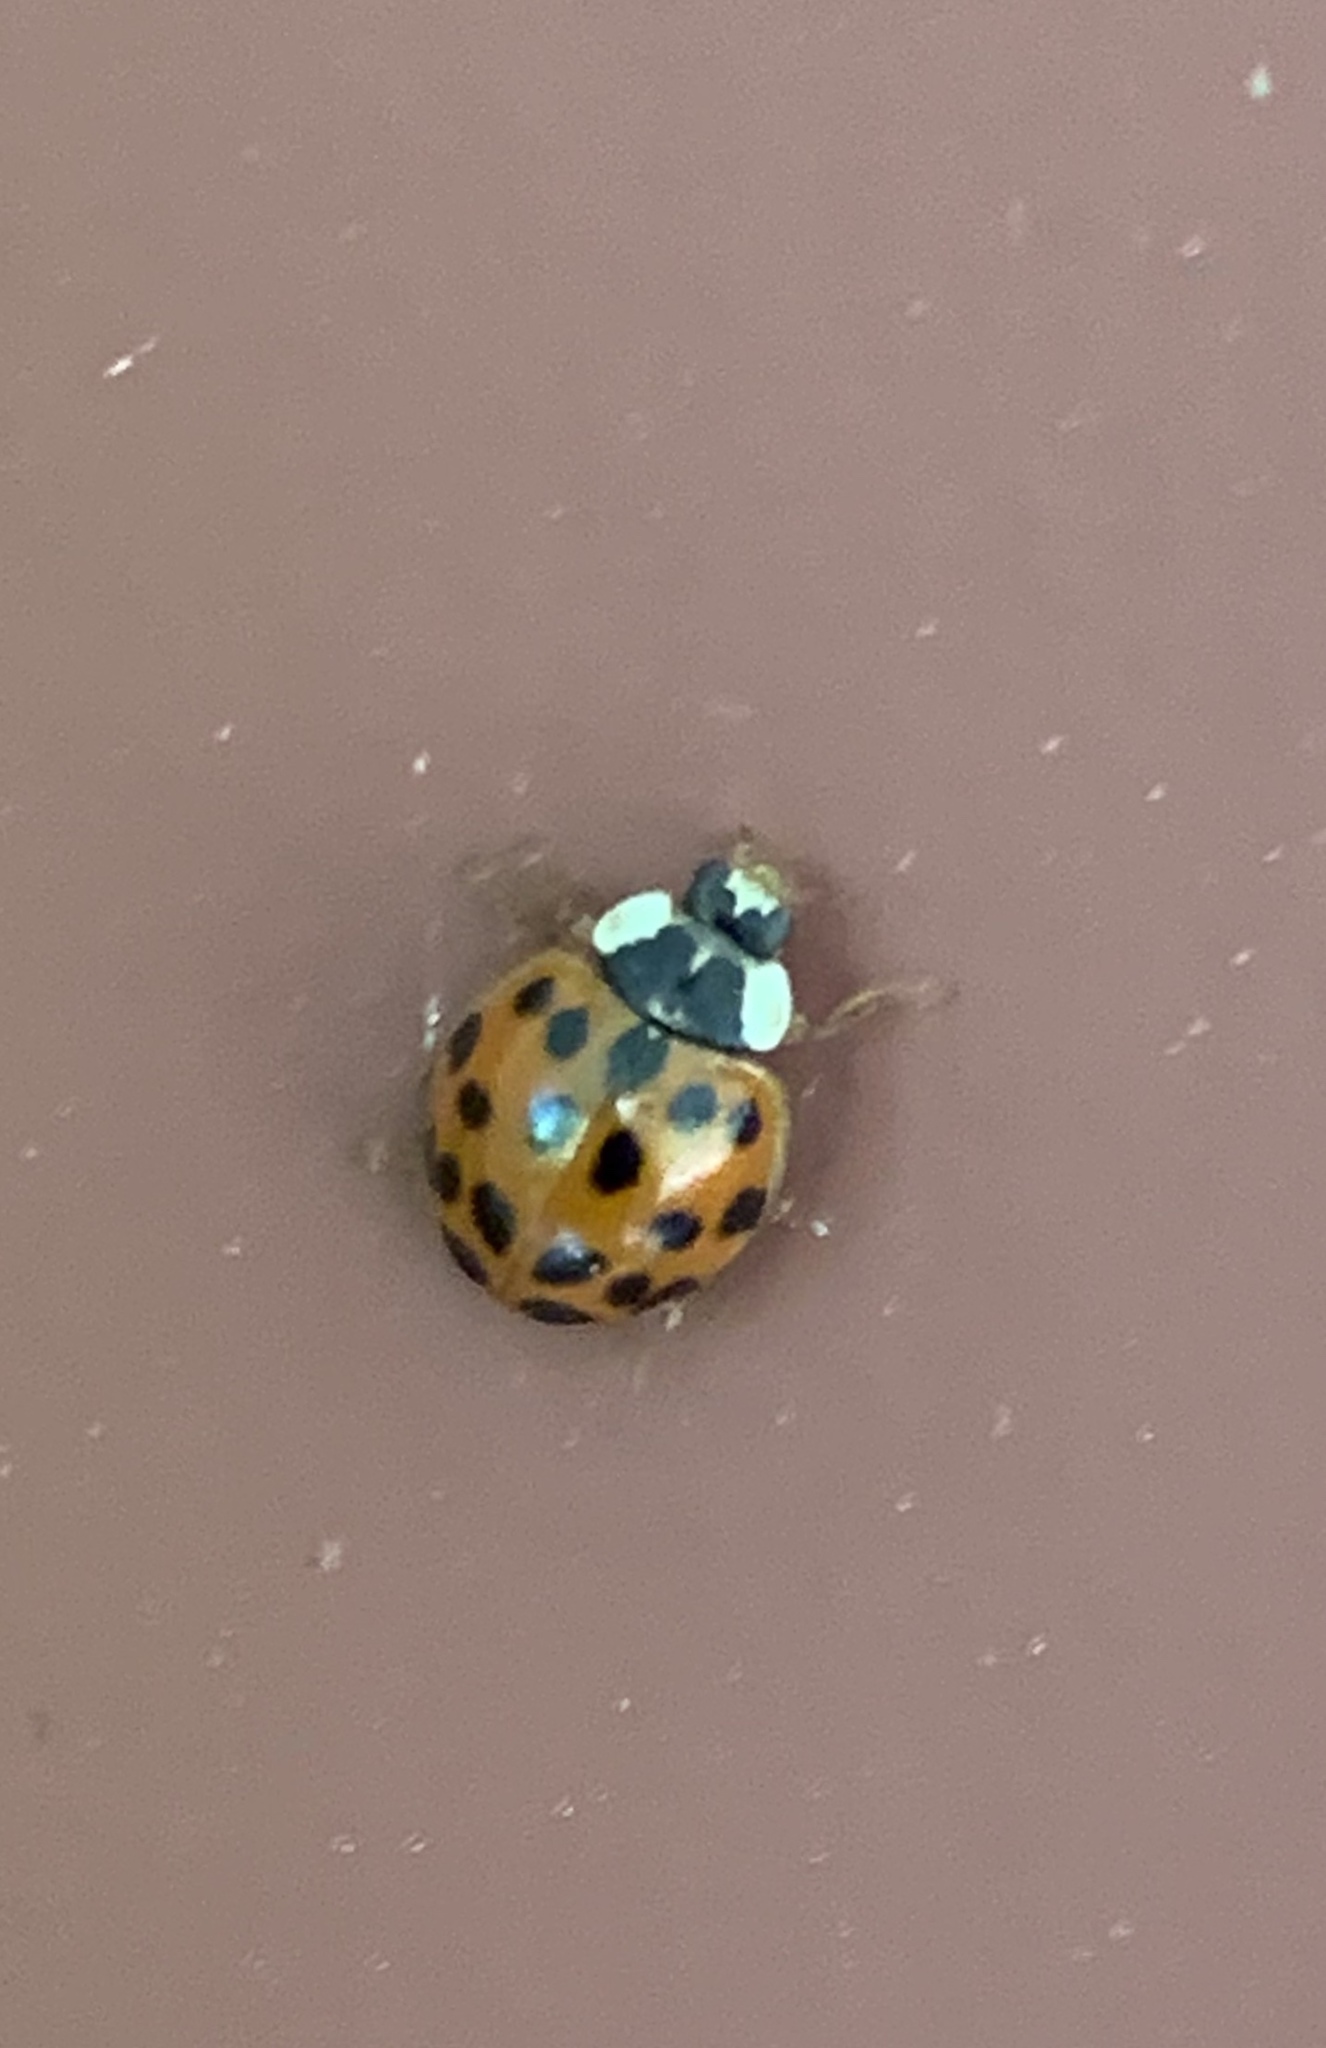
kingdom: Animalia
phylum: Arthropoda
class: Insecta
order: Coleoptera
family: Coccinellidae
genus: Harmonia
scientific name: Harmonia axyridis
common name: Harlequin ladybird
